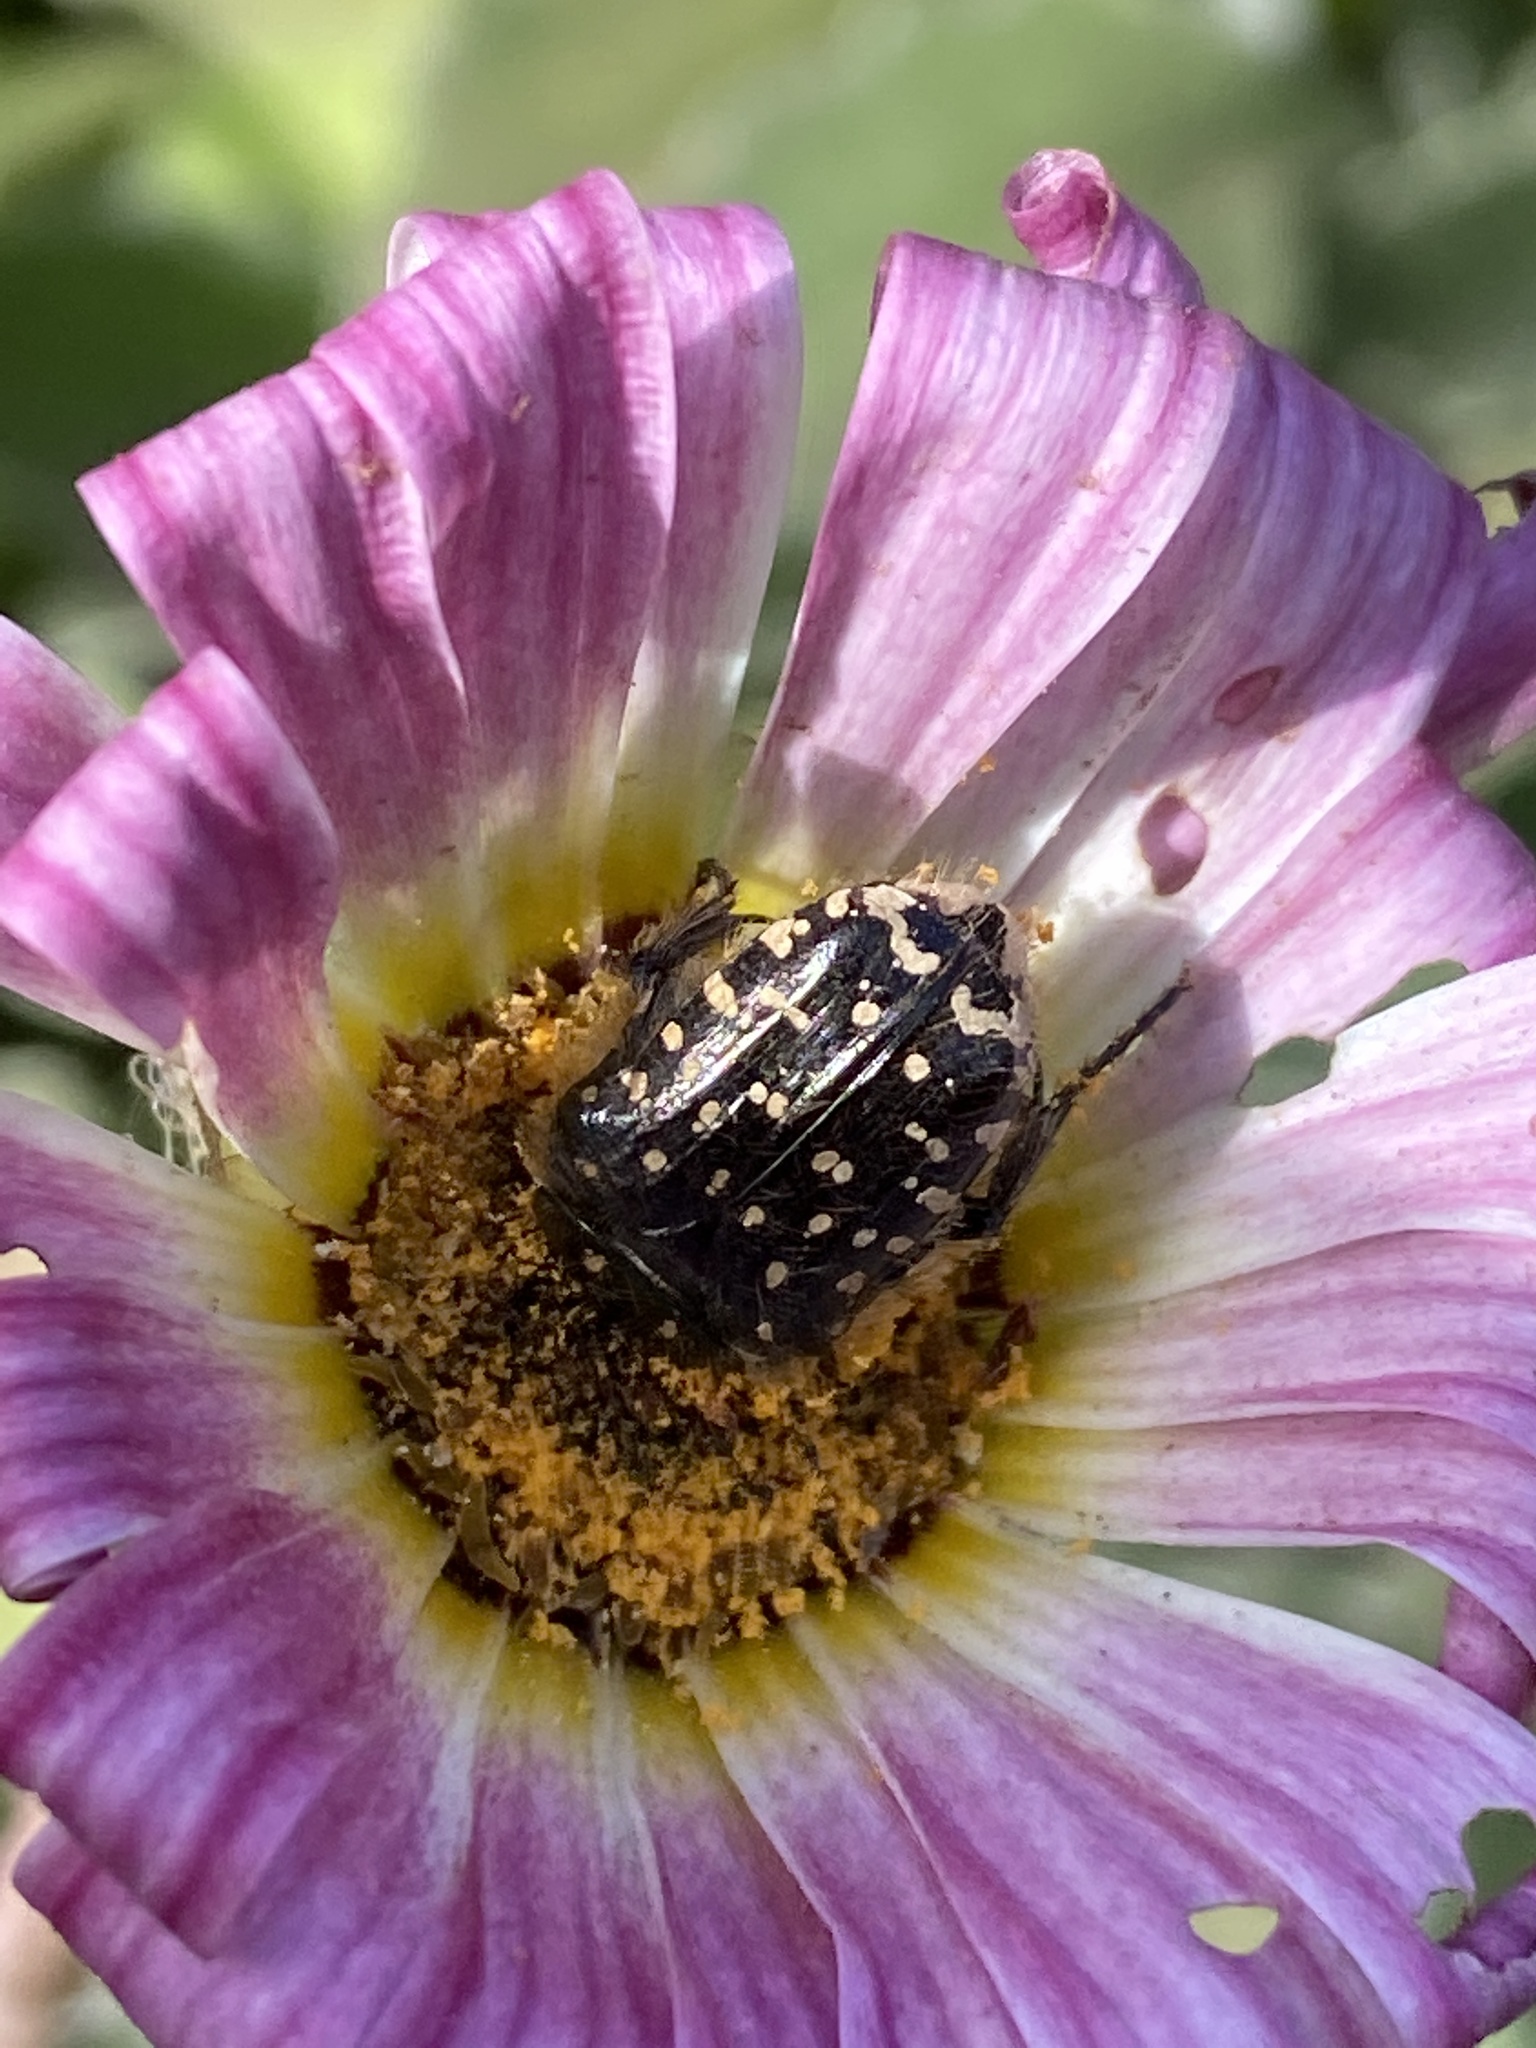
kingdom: Animalia
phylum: Arthropoda
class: Insecta
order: Coleoptera
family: Scarabaeidae
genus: Oxythyrea
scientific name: Oxythyrea funesta
